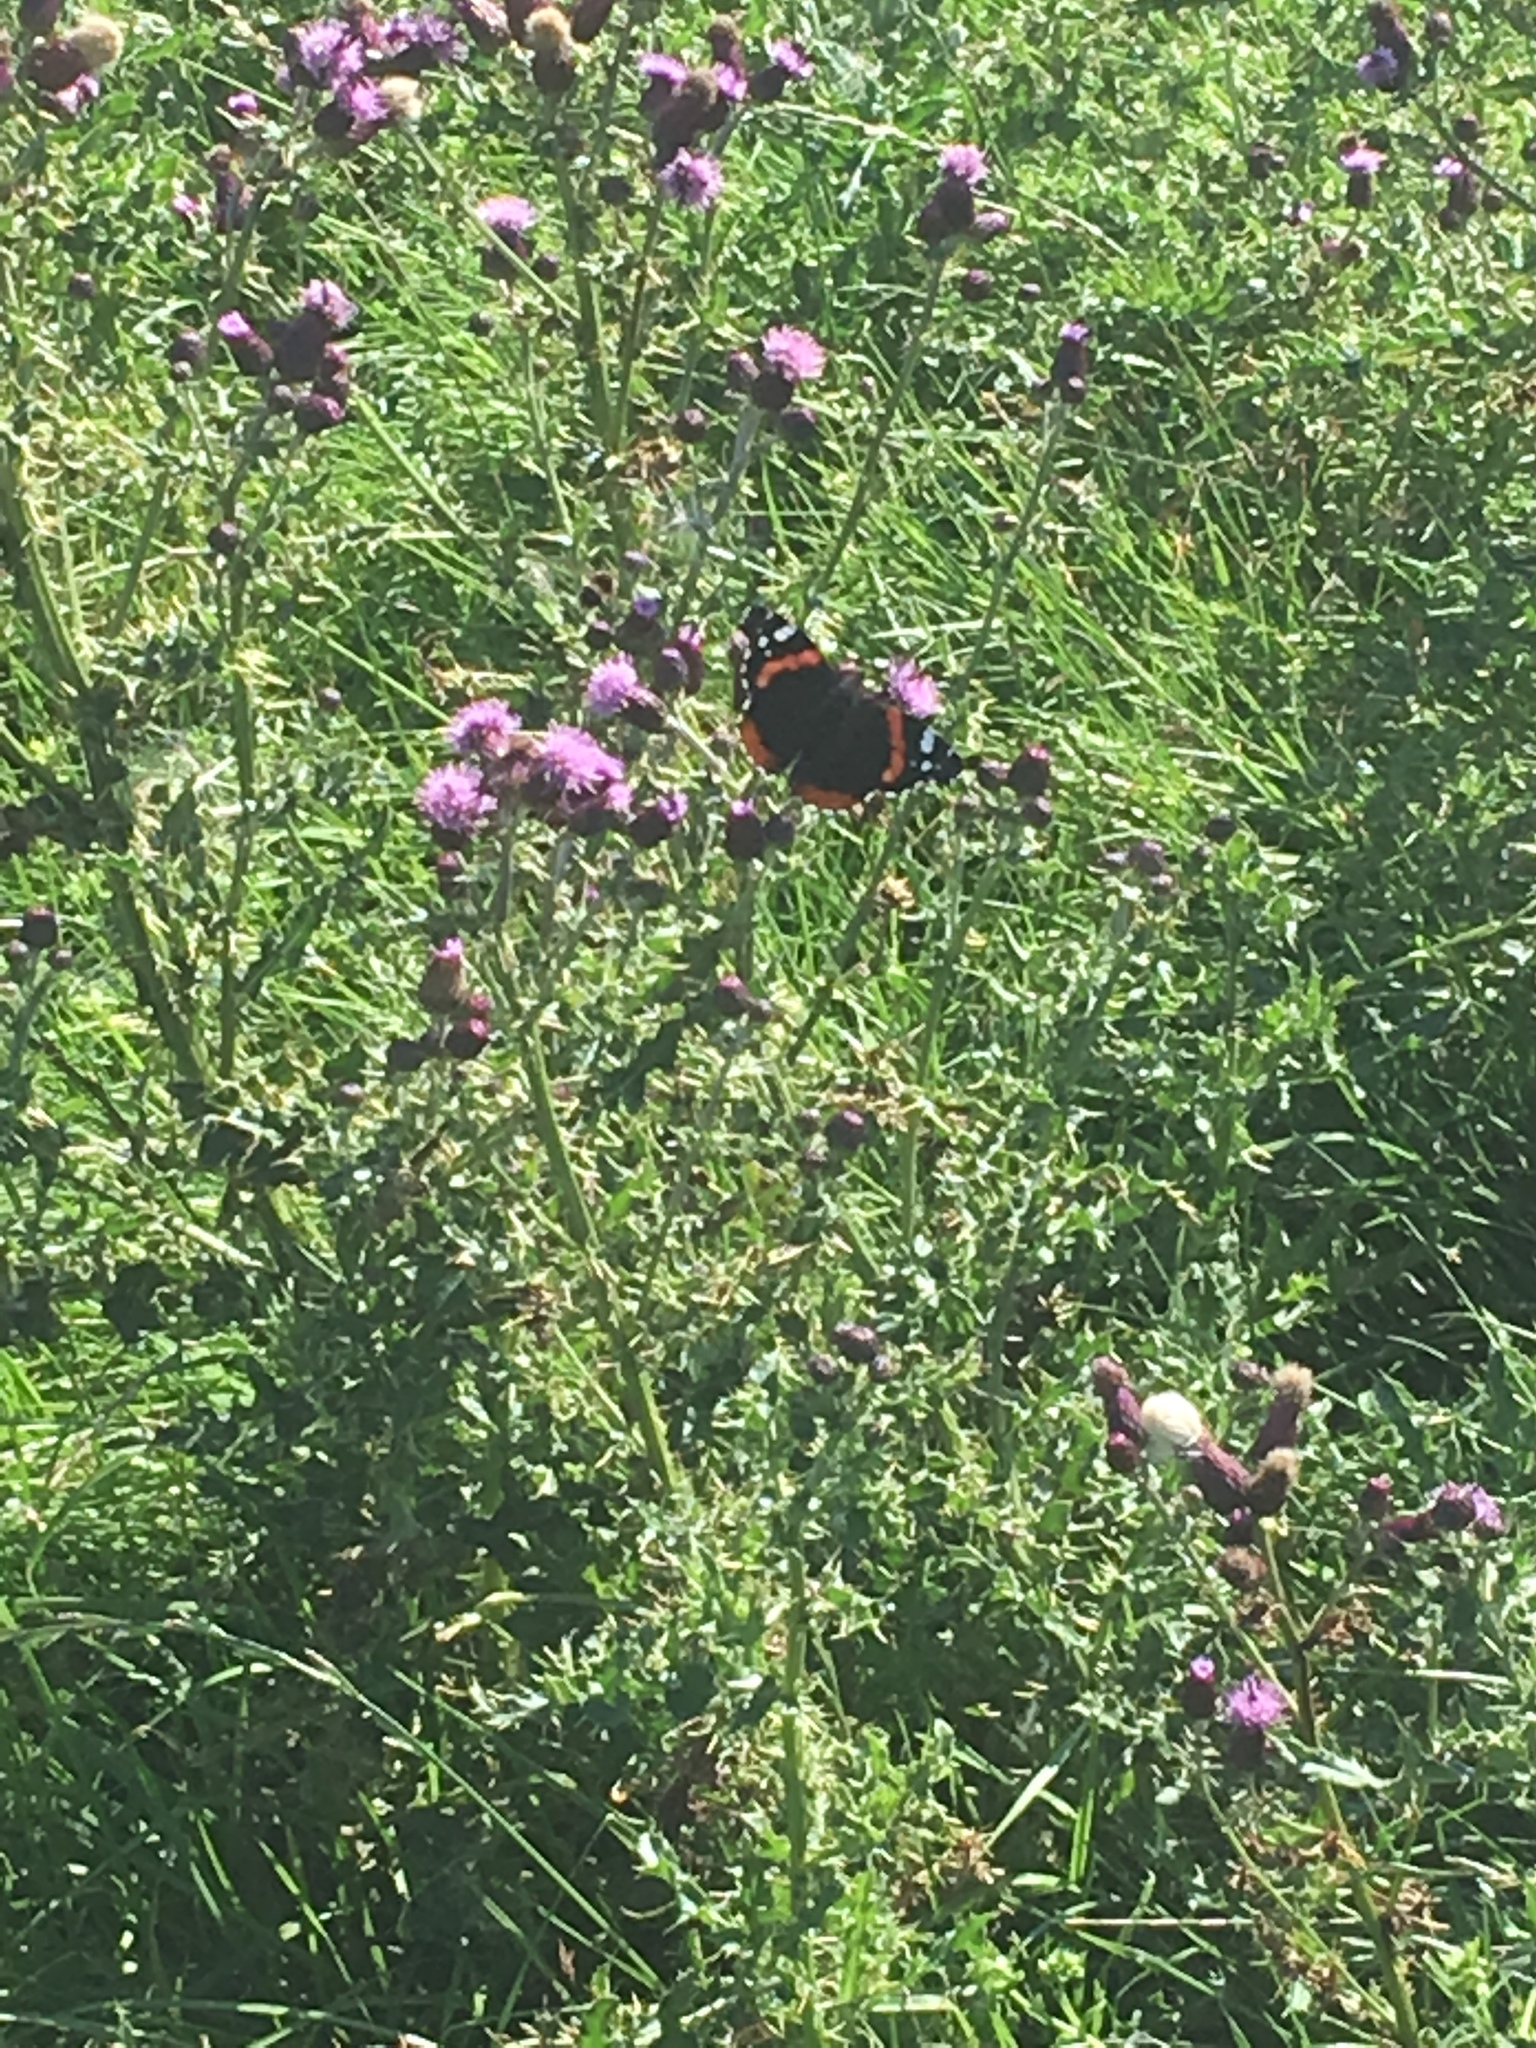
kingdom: Animalia
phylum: Arthropoda
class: Insecta
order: Lepidoptera
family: Nymphalidae
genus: Vanessa
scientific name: Vanessa atalanta
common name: Red admiral
